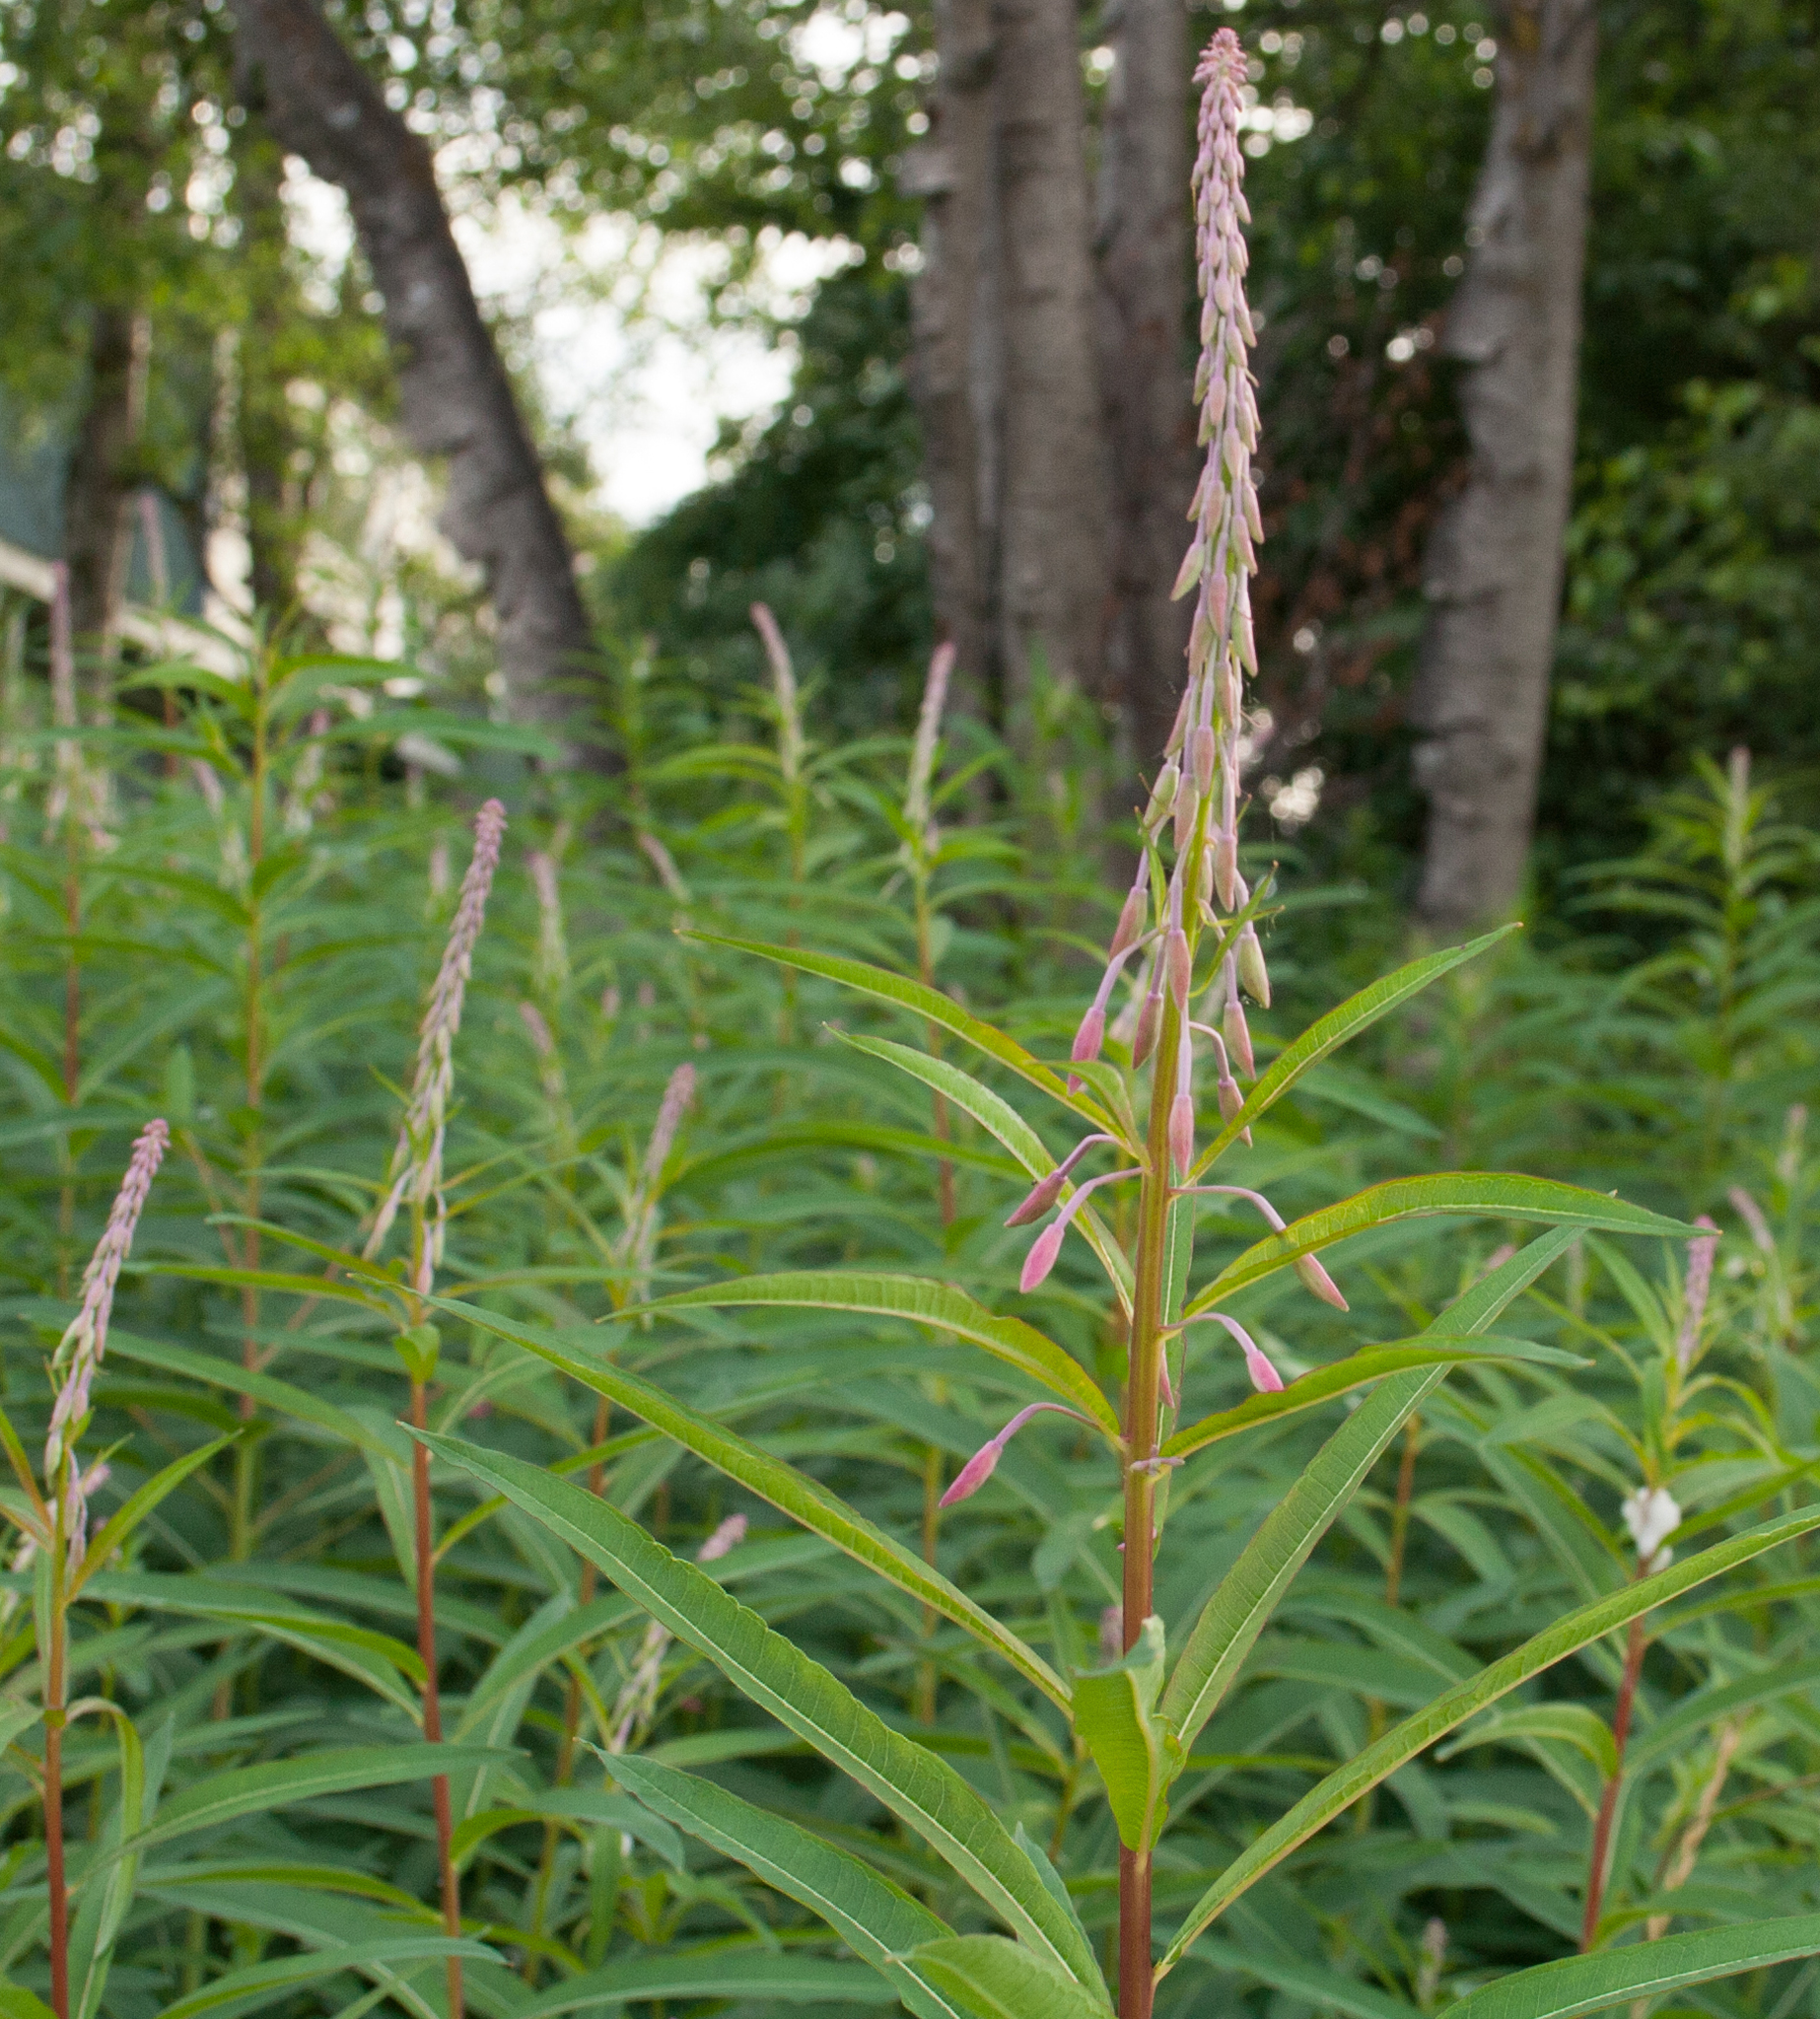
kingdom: Plantae
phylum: Tracheophyta
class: Magnoliopsida
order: Myrtales
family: Onagraceae
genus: Chamaenerion
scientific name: Chamaenerion angustifolium
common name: Fireweed
